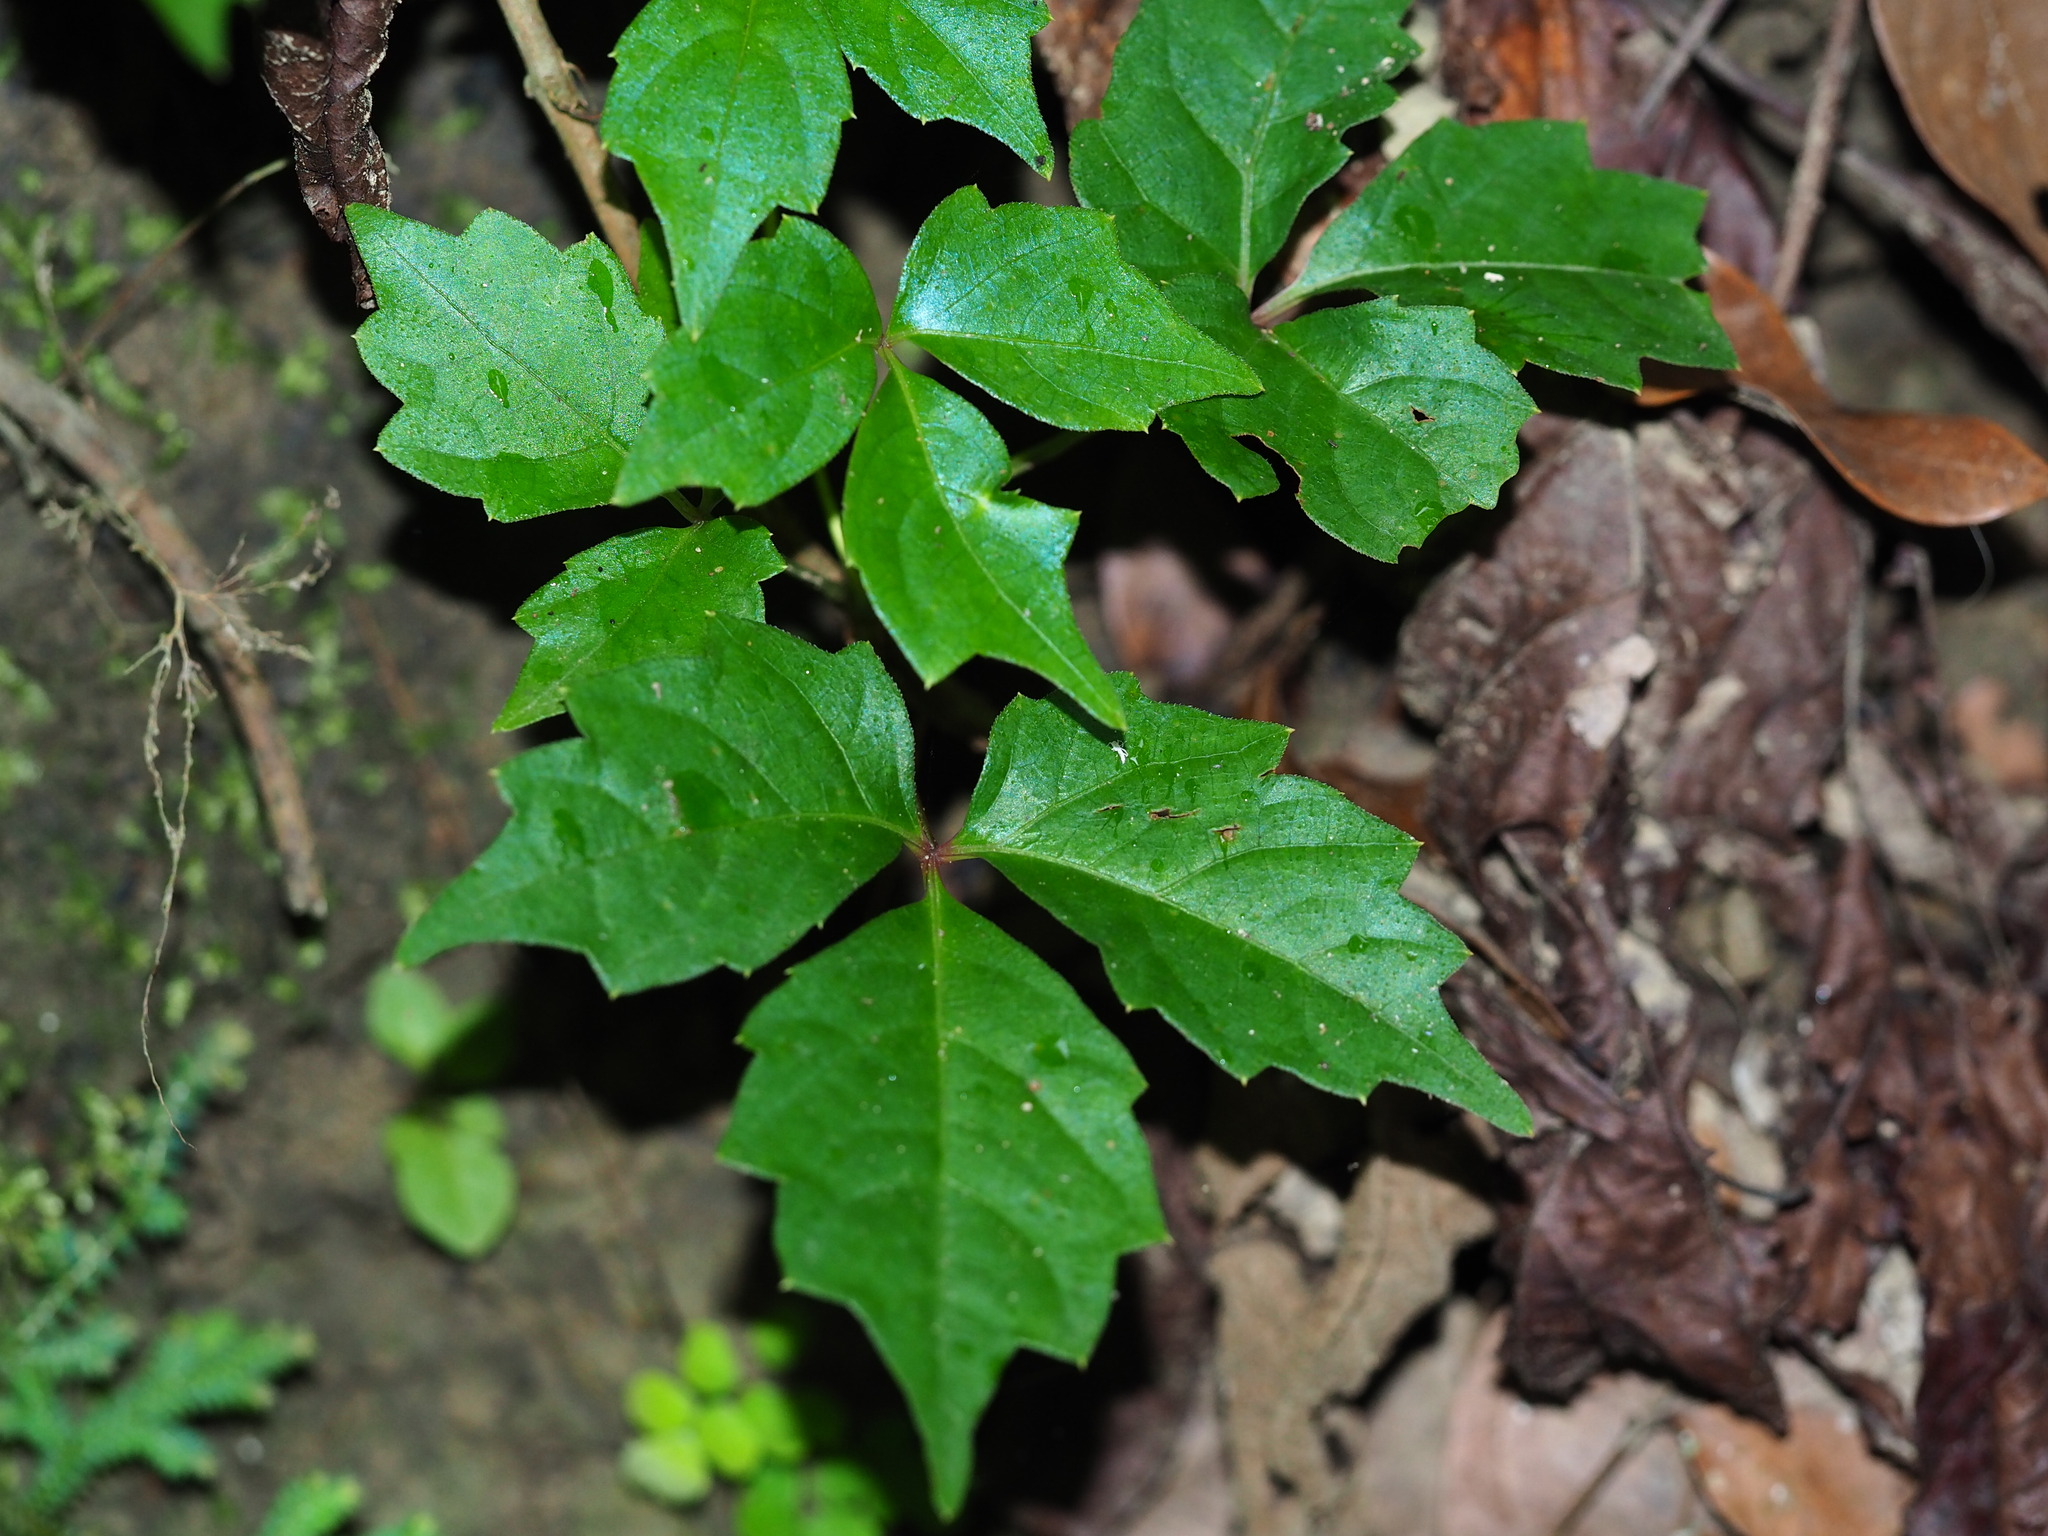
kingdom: Plantae
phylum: Tracheophyta
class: Magnoliopsida
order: Vitales
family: Vitaceae
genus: Parthenocissus
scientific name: Parthenocissus tricuspidata
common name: Boston ivy
